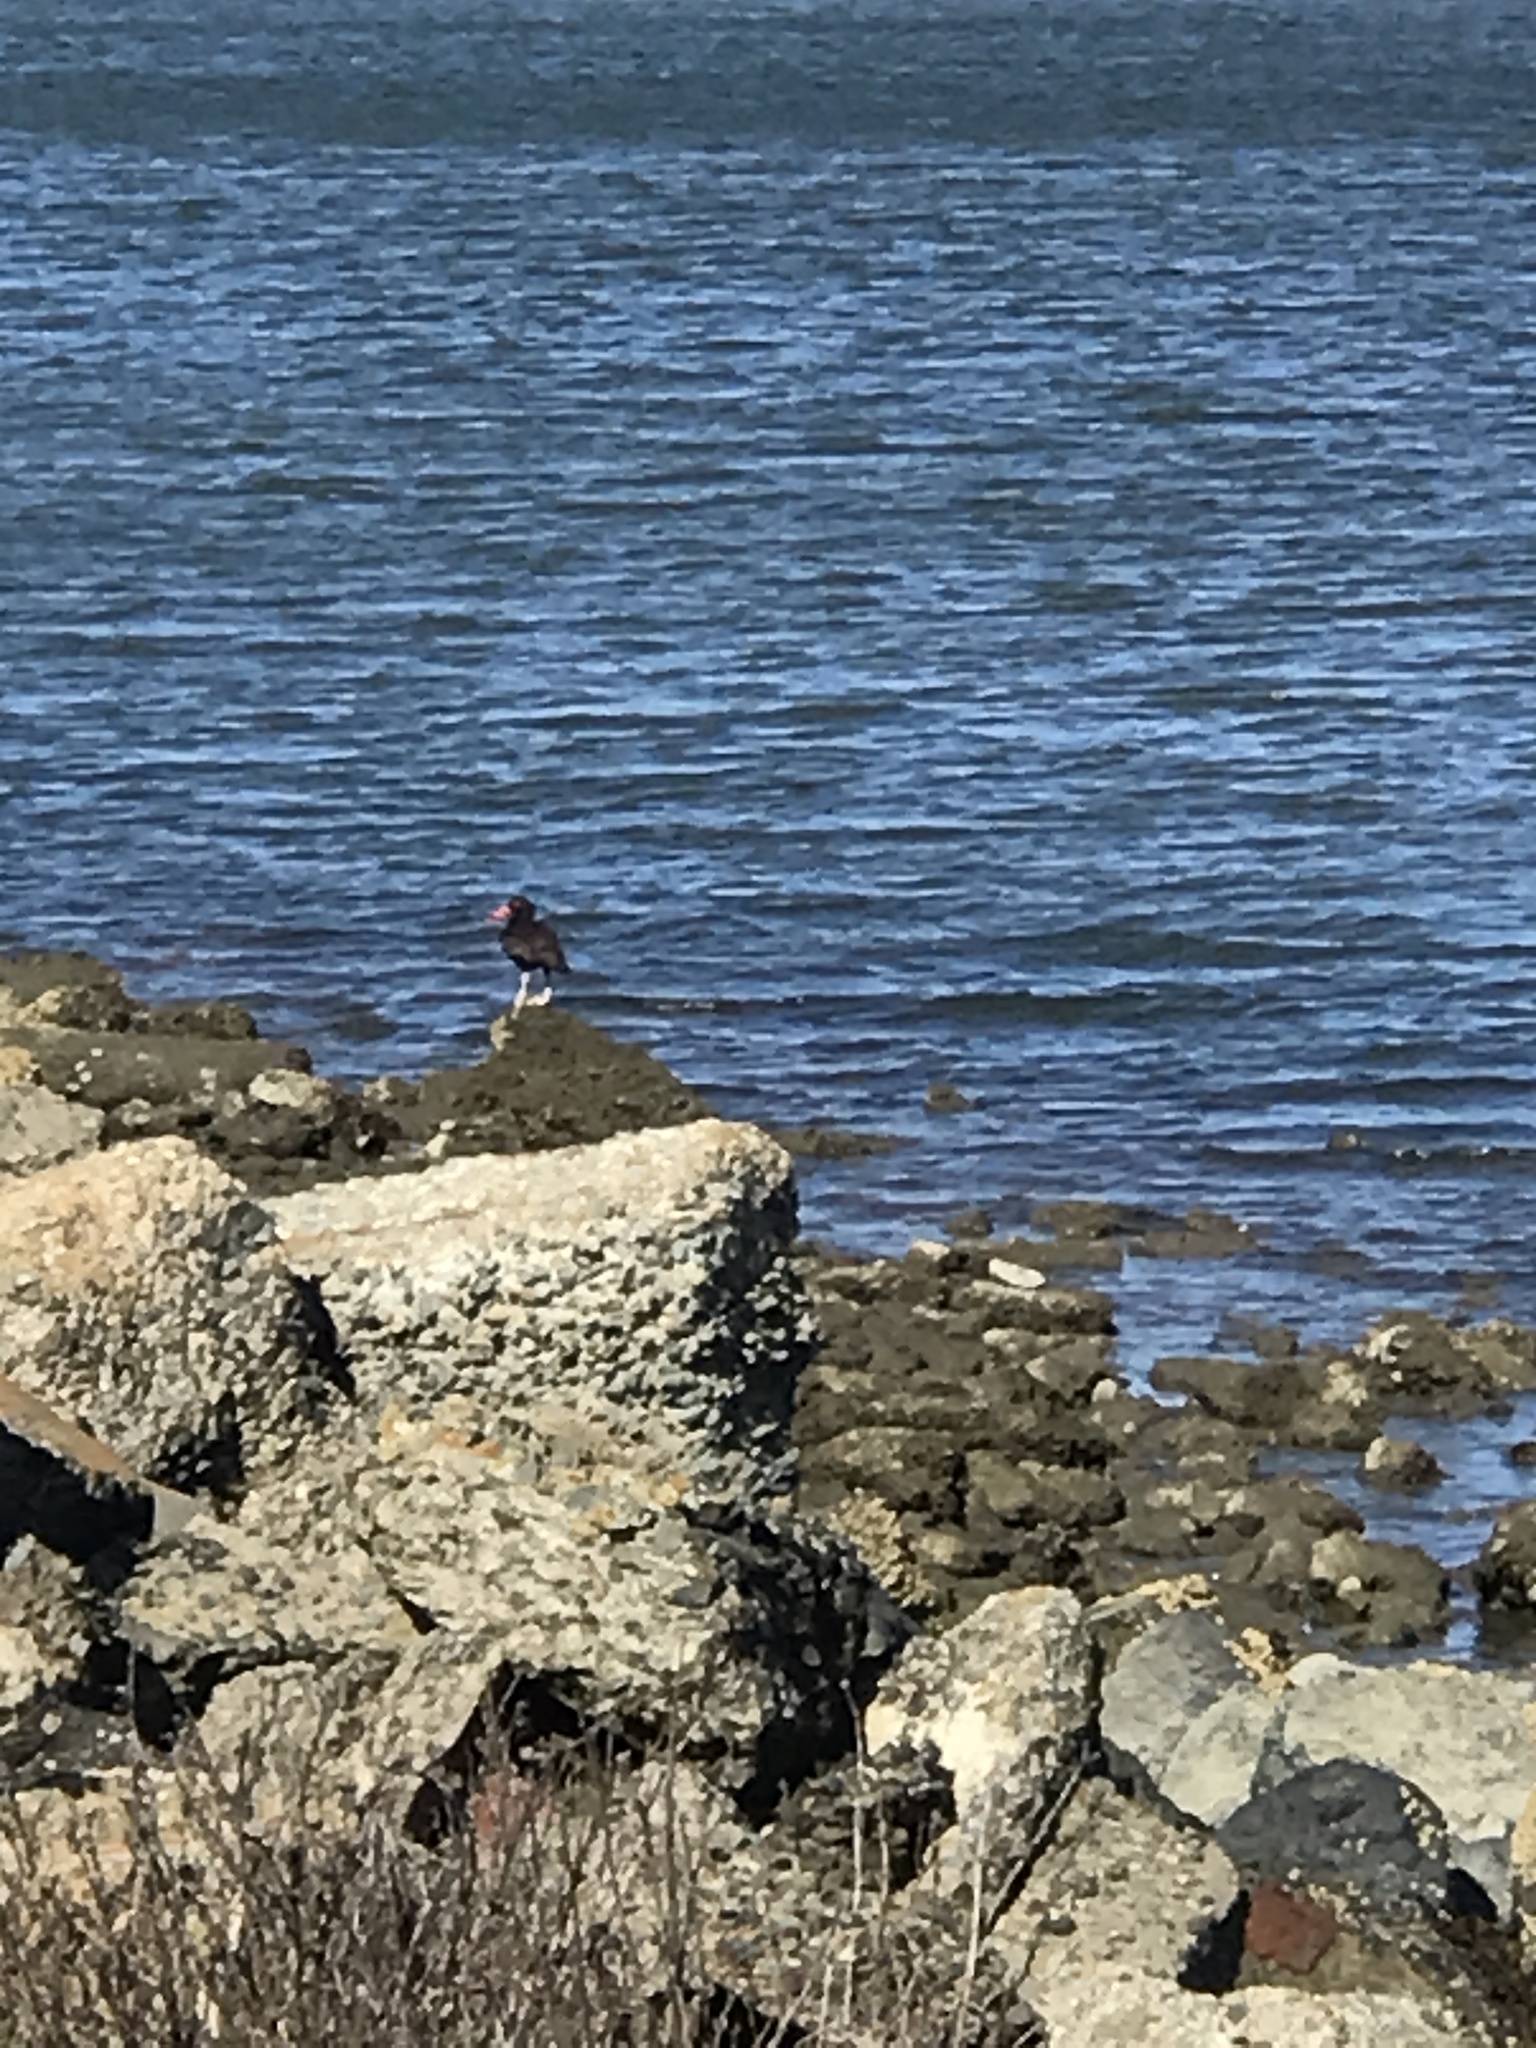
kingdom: Animalia
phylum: Chordata
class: Aves
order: Charadriiformes
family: Haematopodidae
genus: Haematopus
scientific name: Haematopus bachmani
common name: Black oystercatcher
